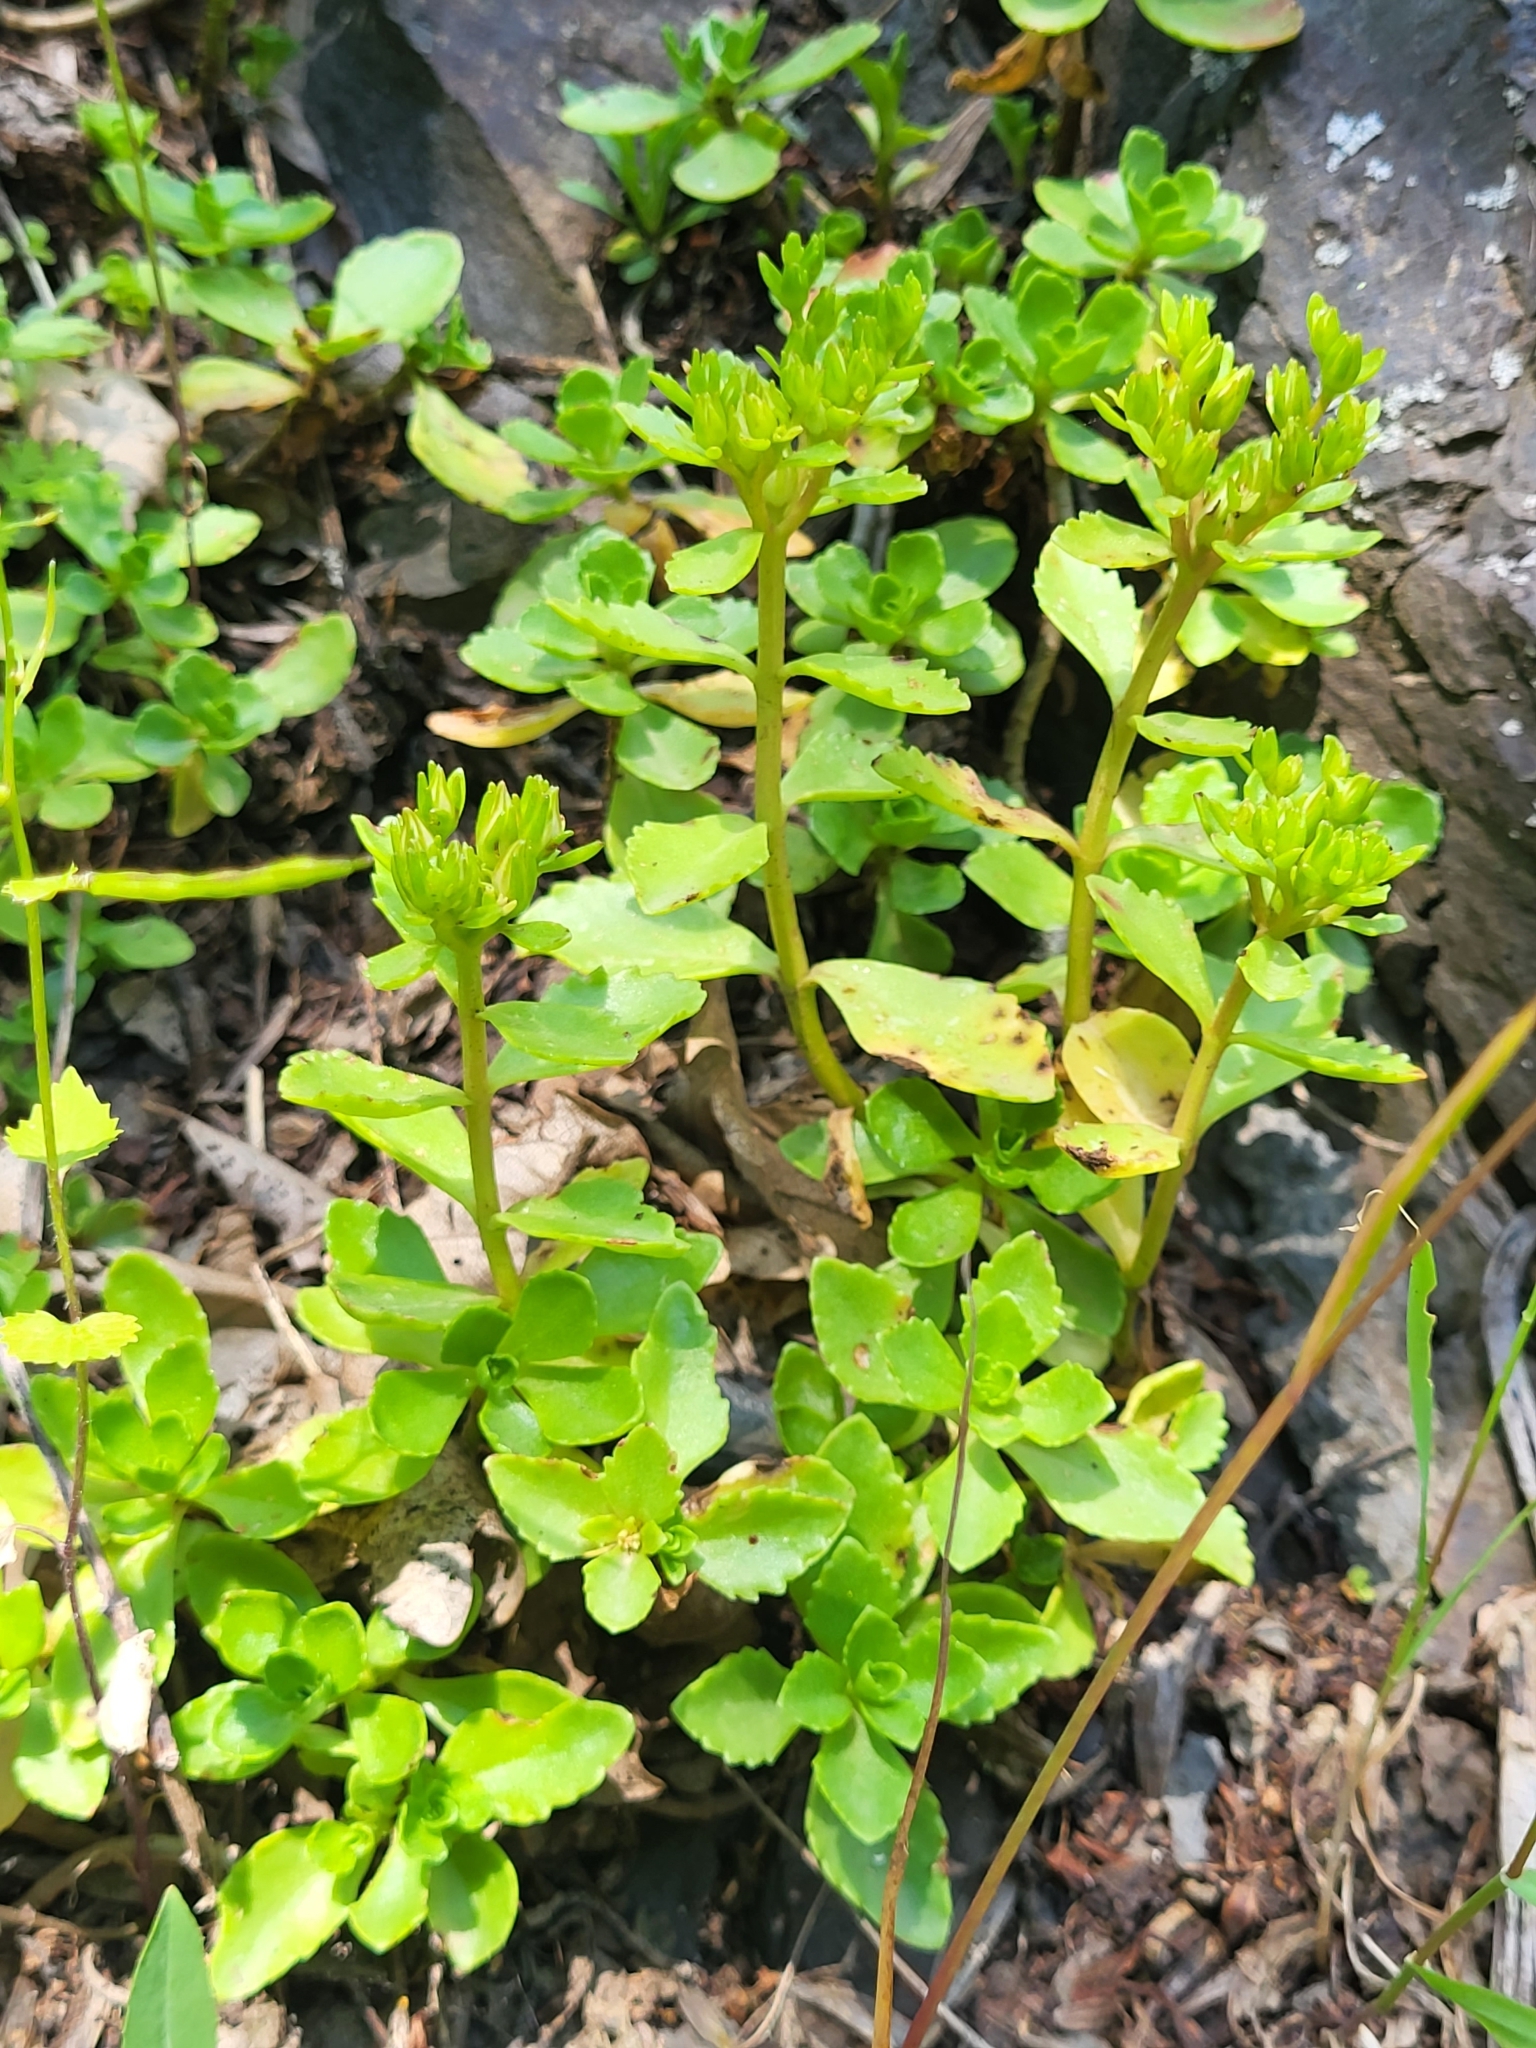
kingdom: Plantae
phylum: Tracheophyta
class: Magnoliopsida
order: Saxifragales
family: Crassulaceae
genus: Phedimus
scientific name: Phedimus spurius
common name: Caucasian stonecrop
